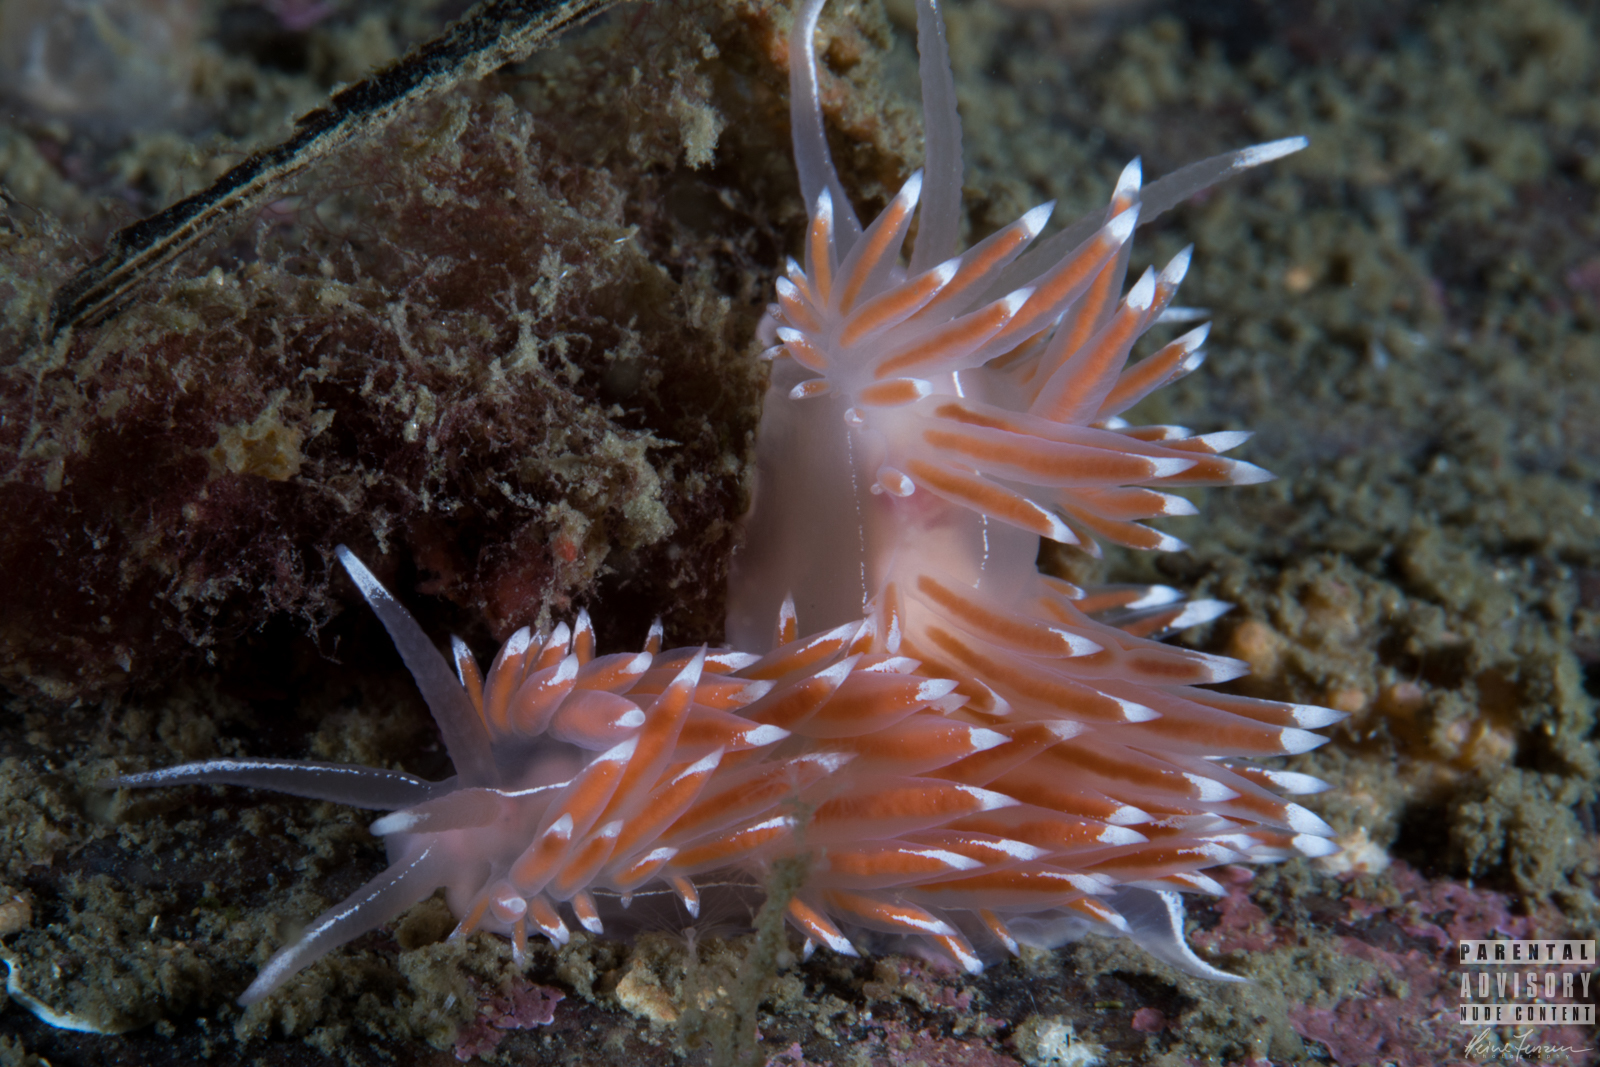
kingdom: Animalia
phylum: Mollusca
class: Gastropoda
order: Nudibranchia
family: Coryphellidae
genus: Coryphella
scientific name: Coryphella lineata
